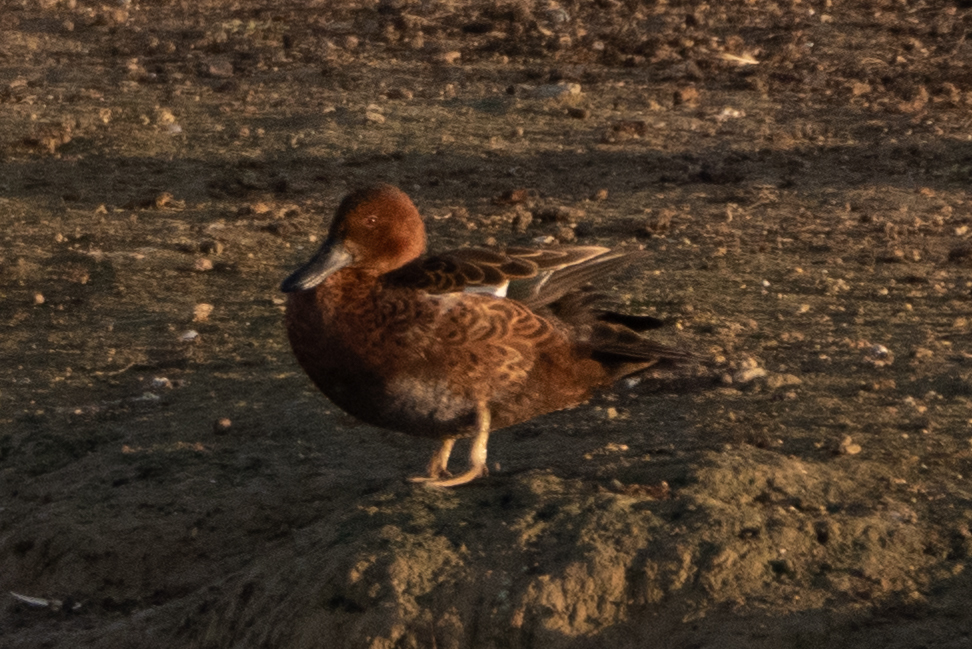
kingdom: Animalia
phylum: Chordata
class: Aves
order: Anseriformes
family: Anatidae
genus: Spatula
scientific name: Spatula cyanoptera
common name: Cinnamon teal
